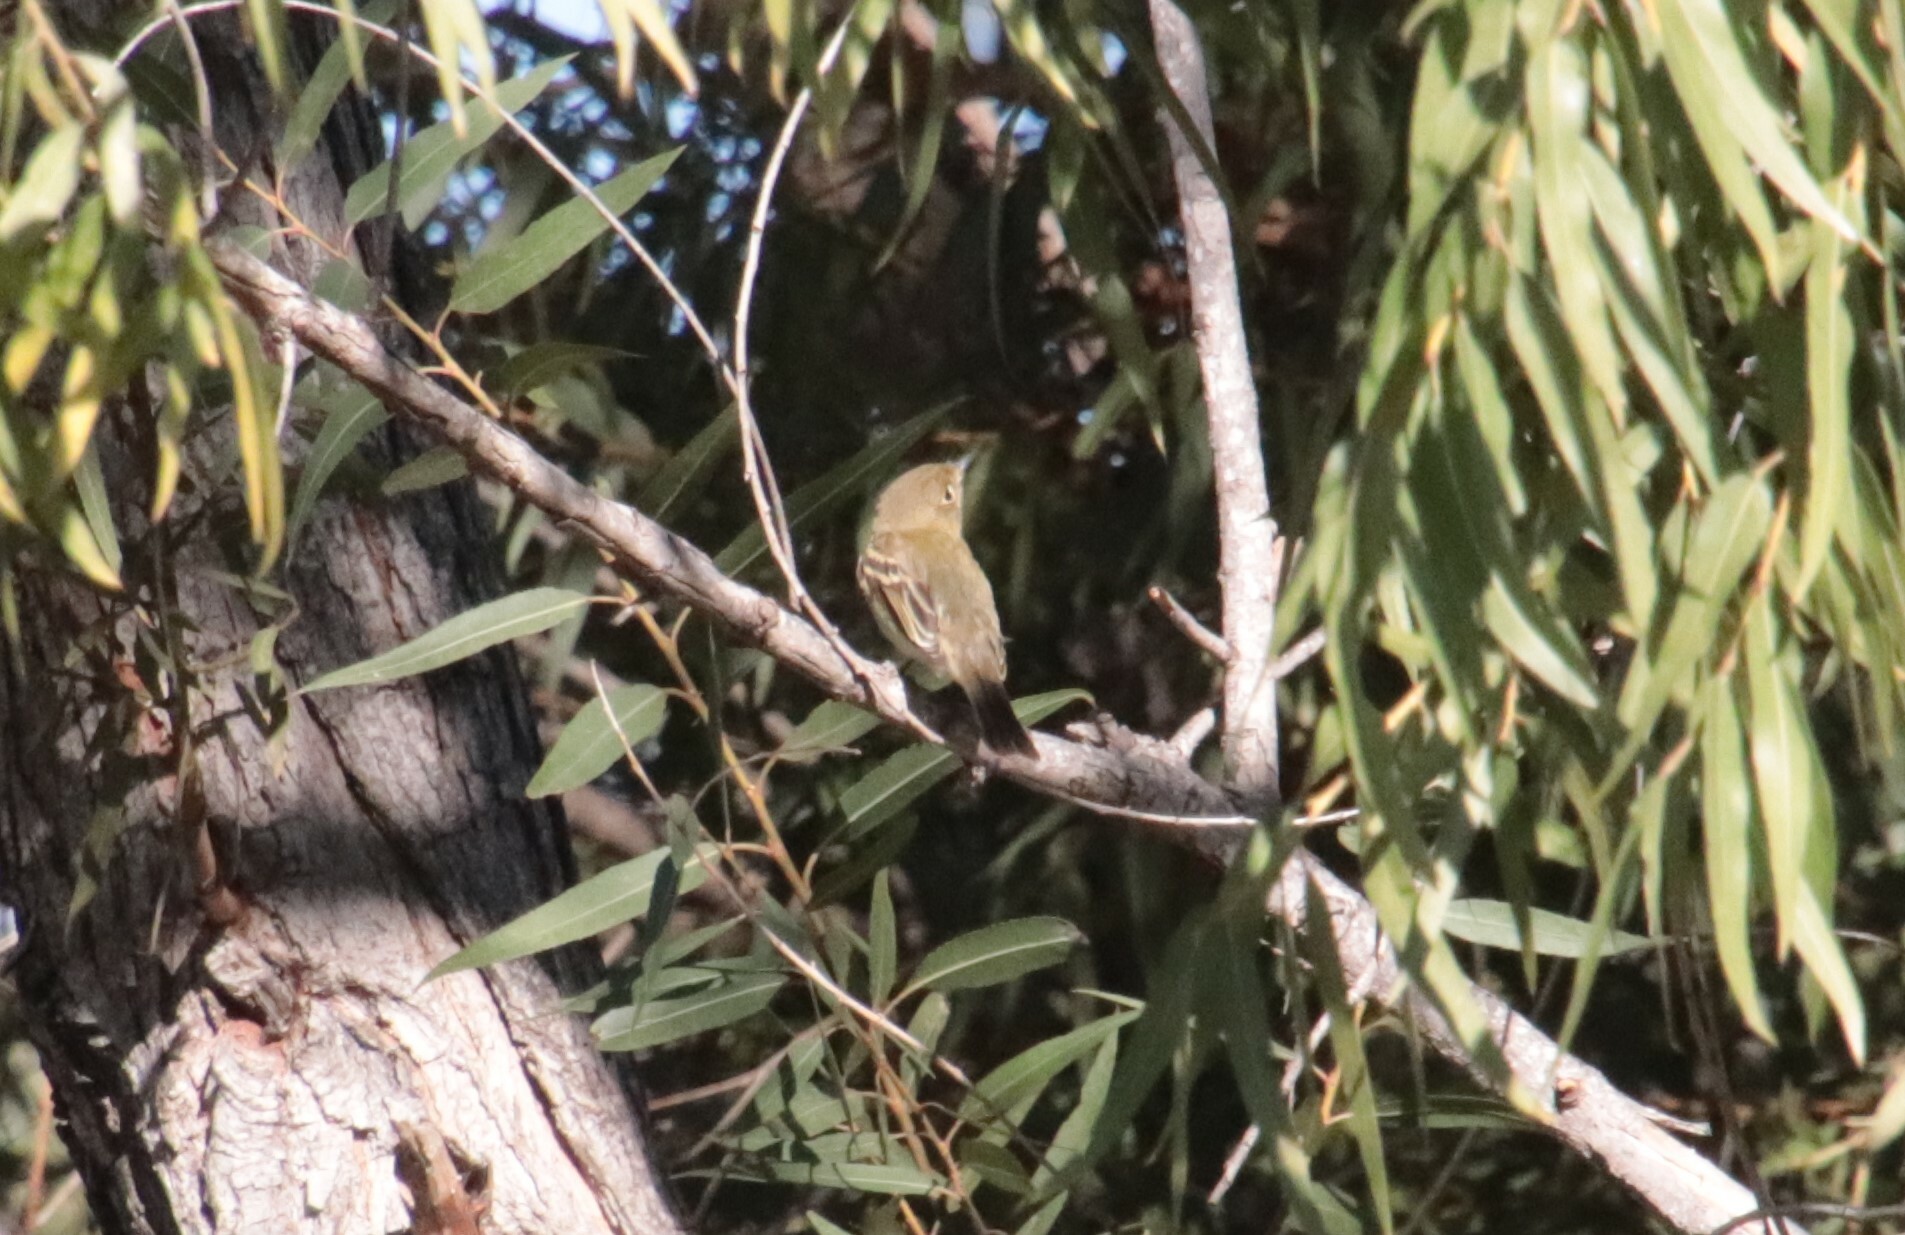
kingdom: Animalia
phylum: Chordata
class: Aves
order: Passeriformes
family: Tyrannidae
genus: Empidonax
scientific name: Empidonax difficilis
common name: Pacific-slope flycatcher
